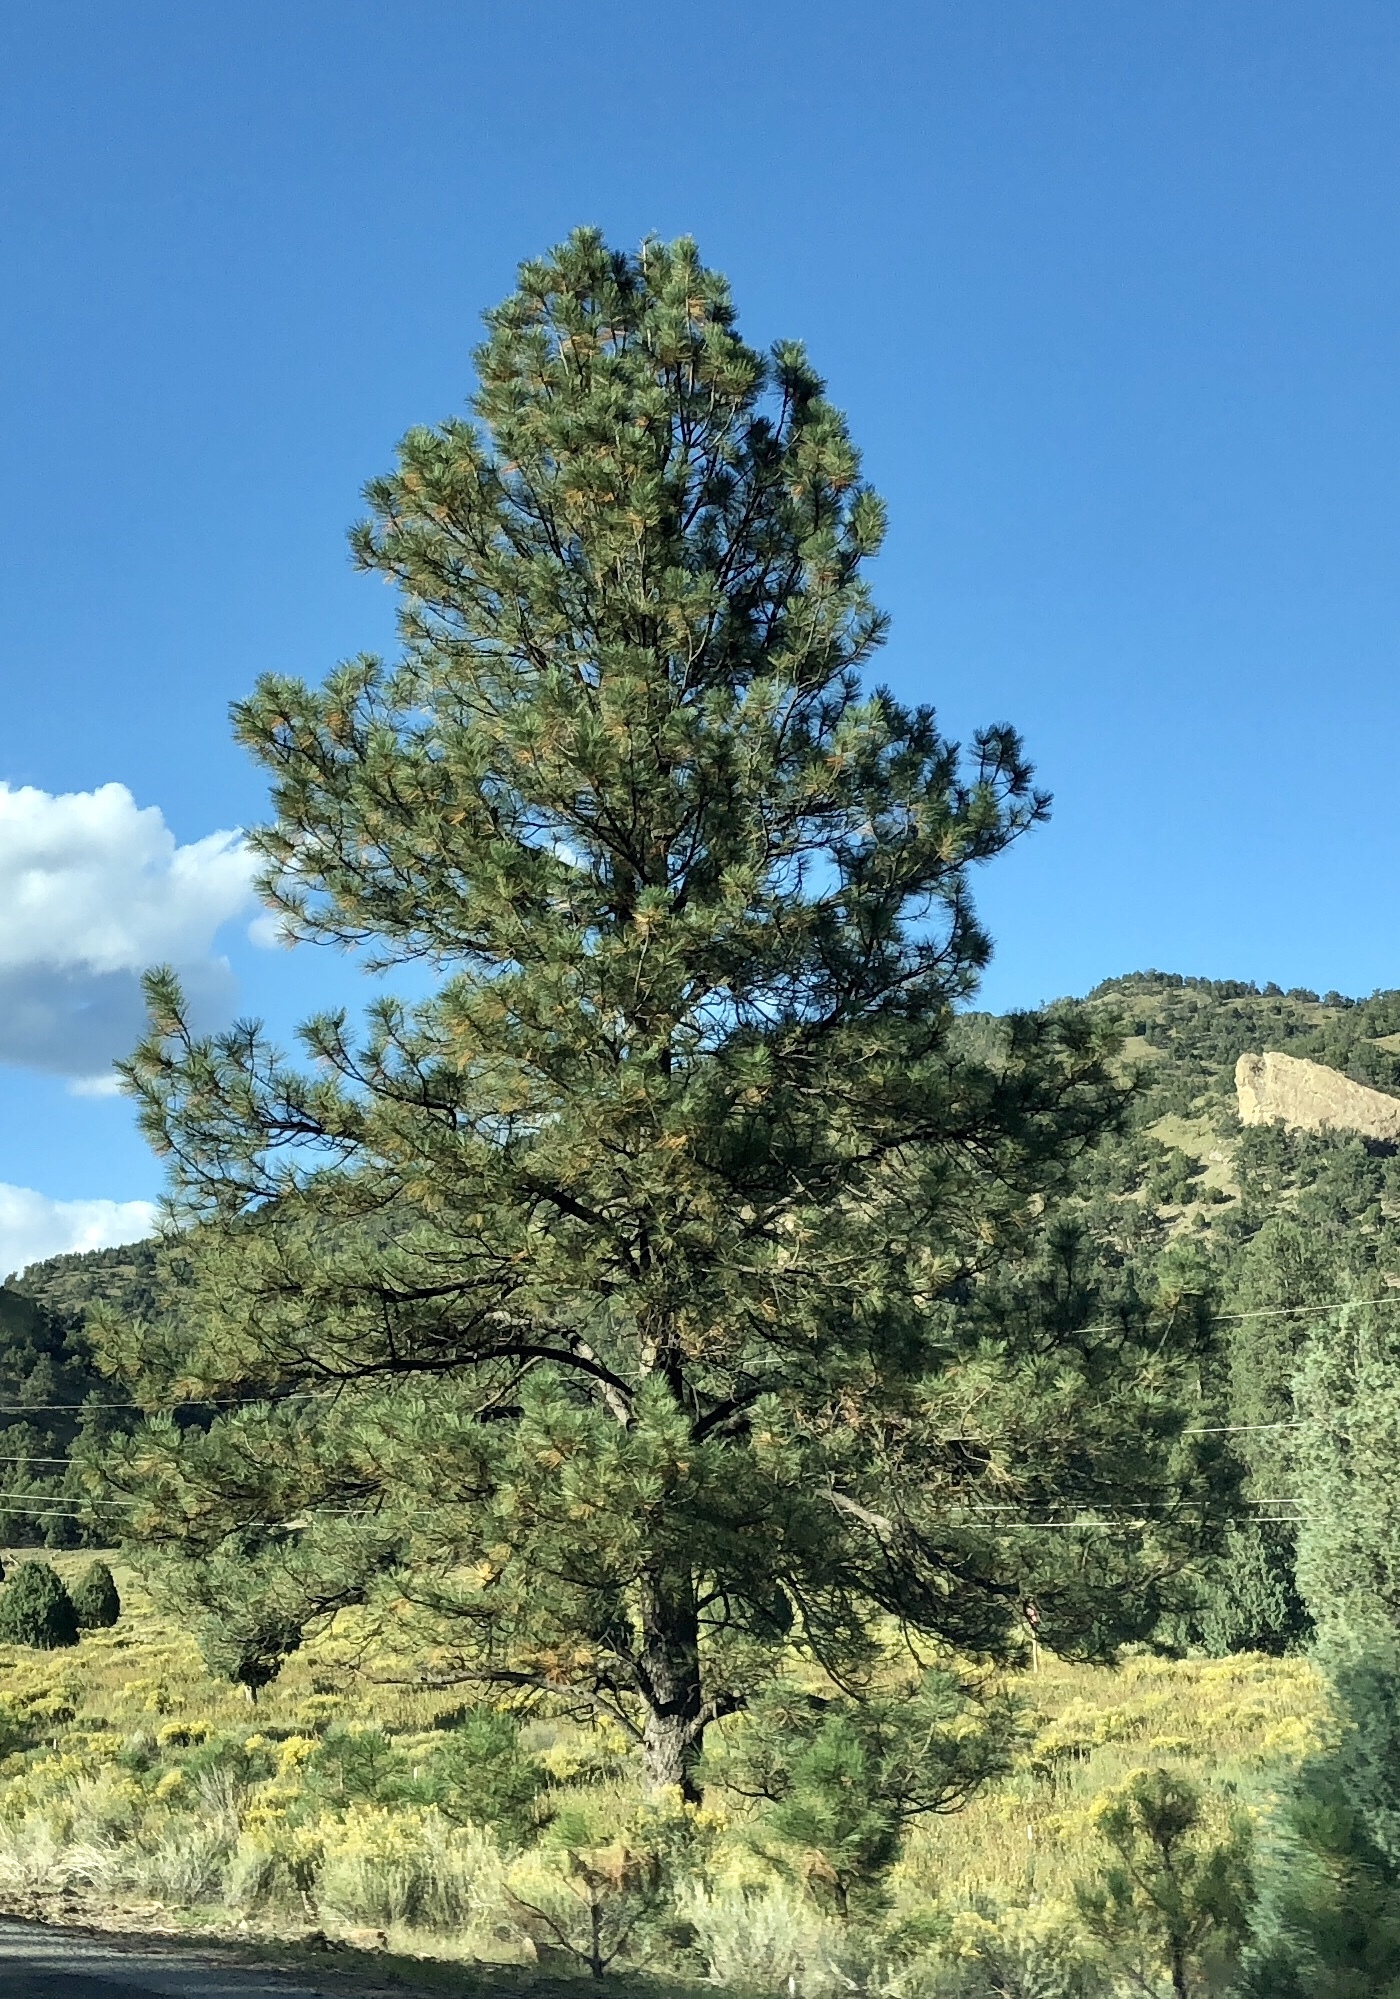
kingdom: Plantae
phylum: Tracheophyta
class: Pinopsida
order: Pinales
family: Pinaceae
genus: Pinus
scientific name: Pinus ponderosa
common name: Western yellow-pine
